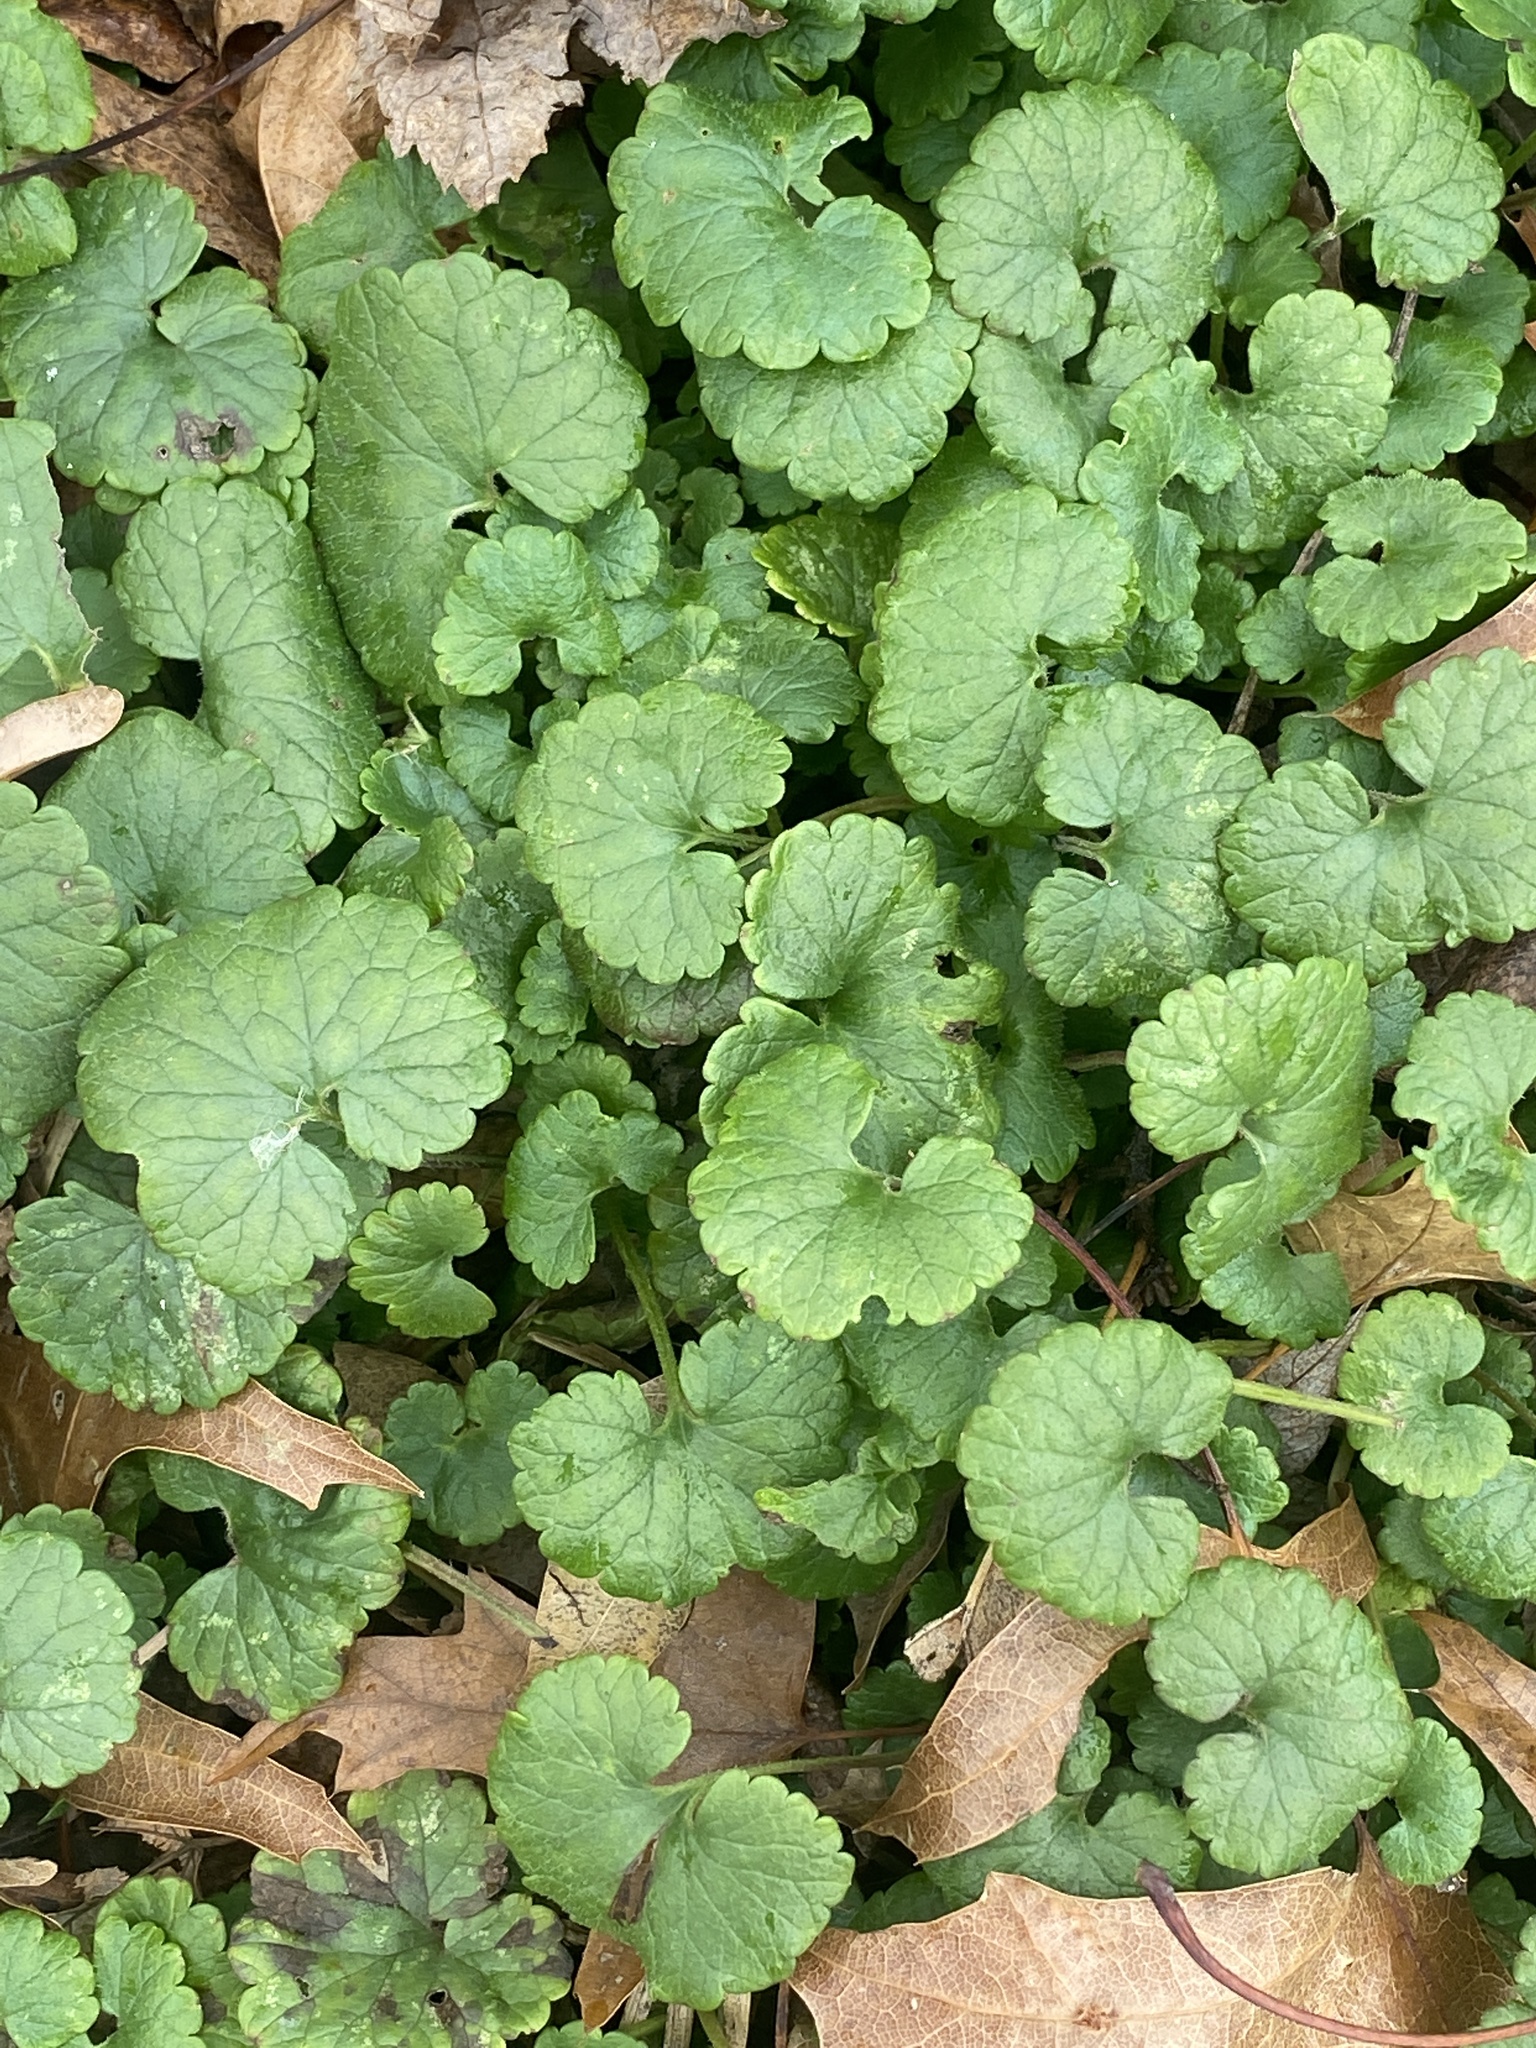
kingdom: Plantae
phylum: Tracheophyta
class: Magnoliopsida
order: Lamiales
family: Lamiaceae
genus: Glechoma
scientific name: Glechoma hederacea
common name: Ground ivy
